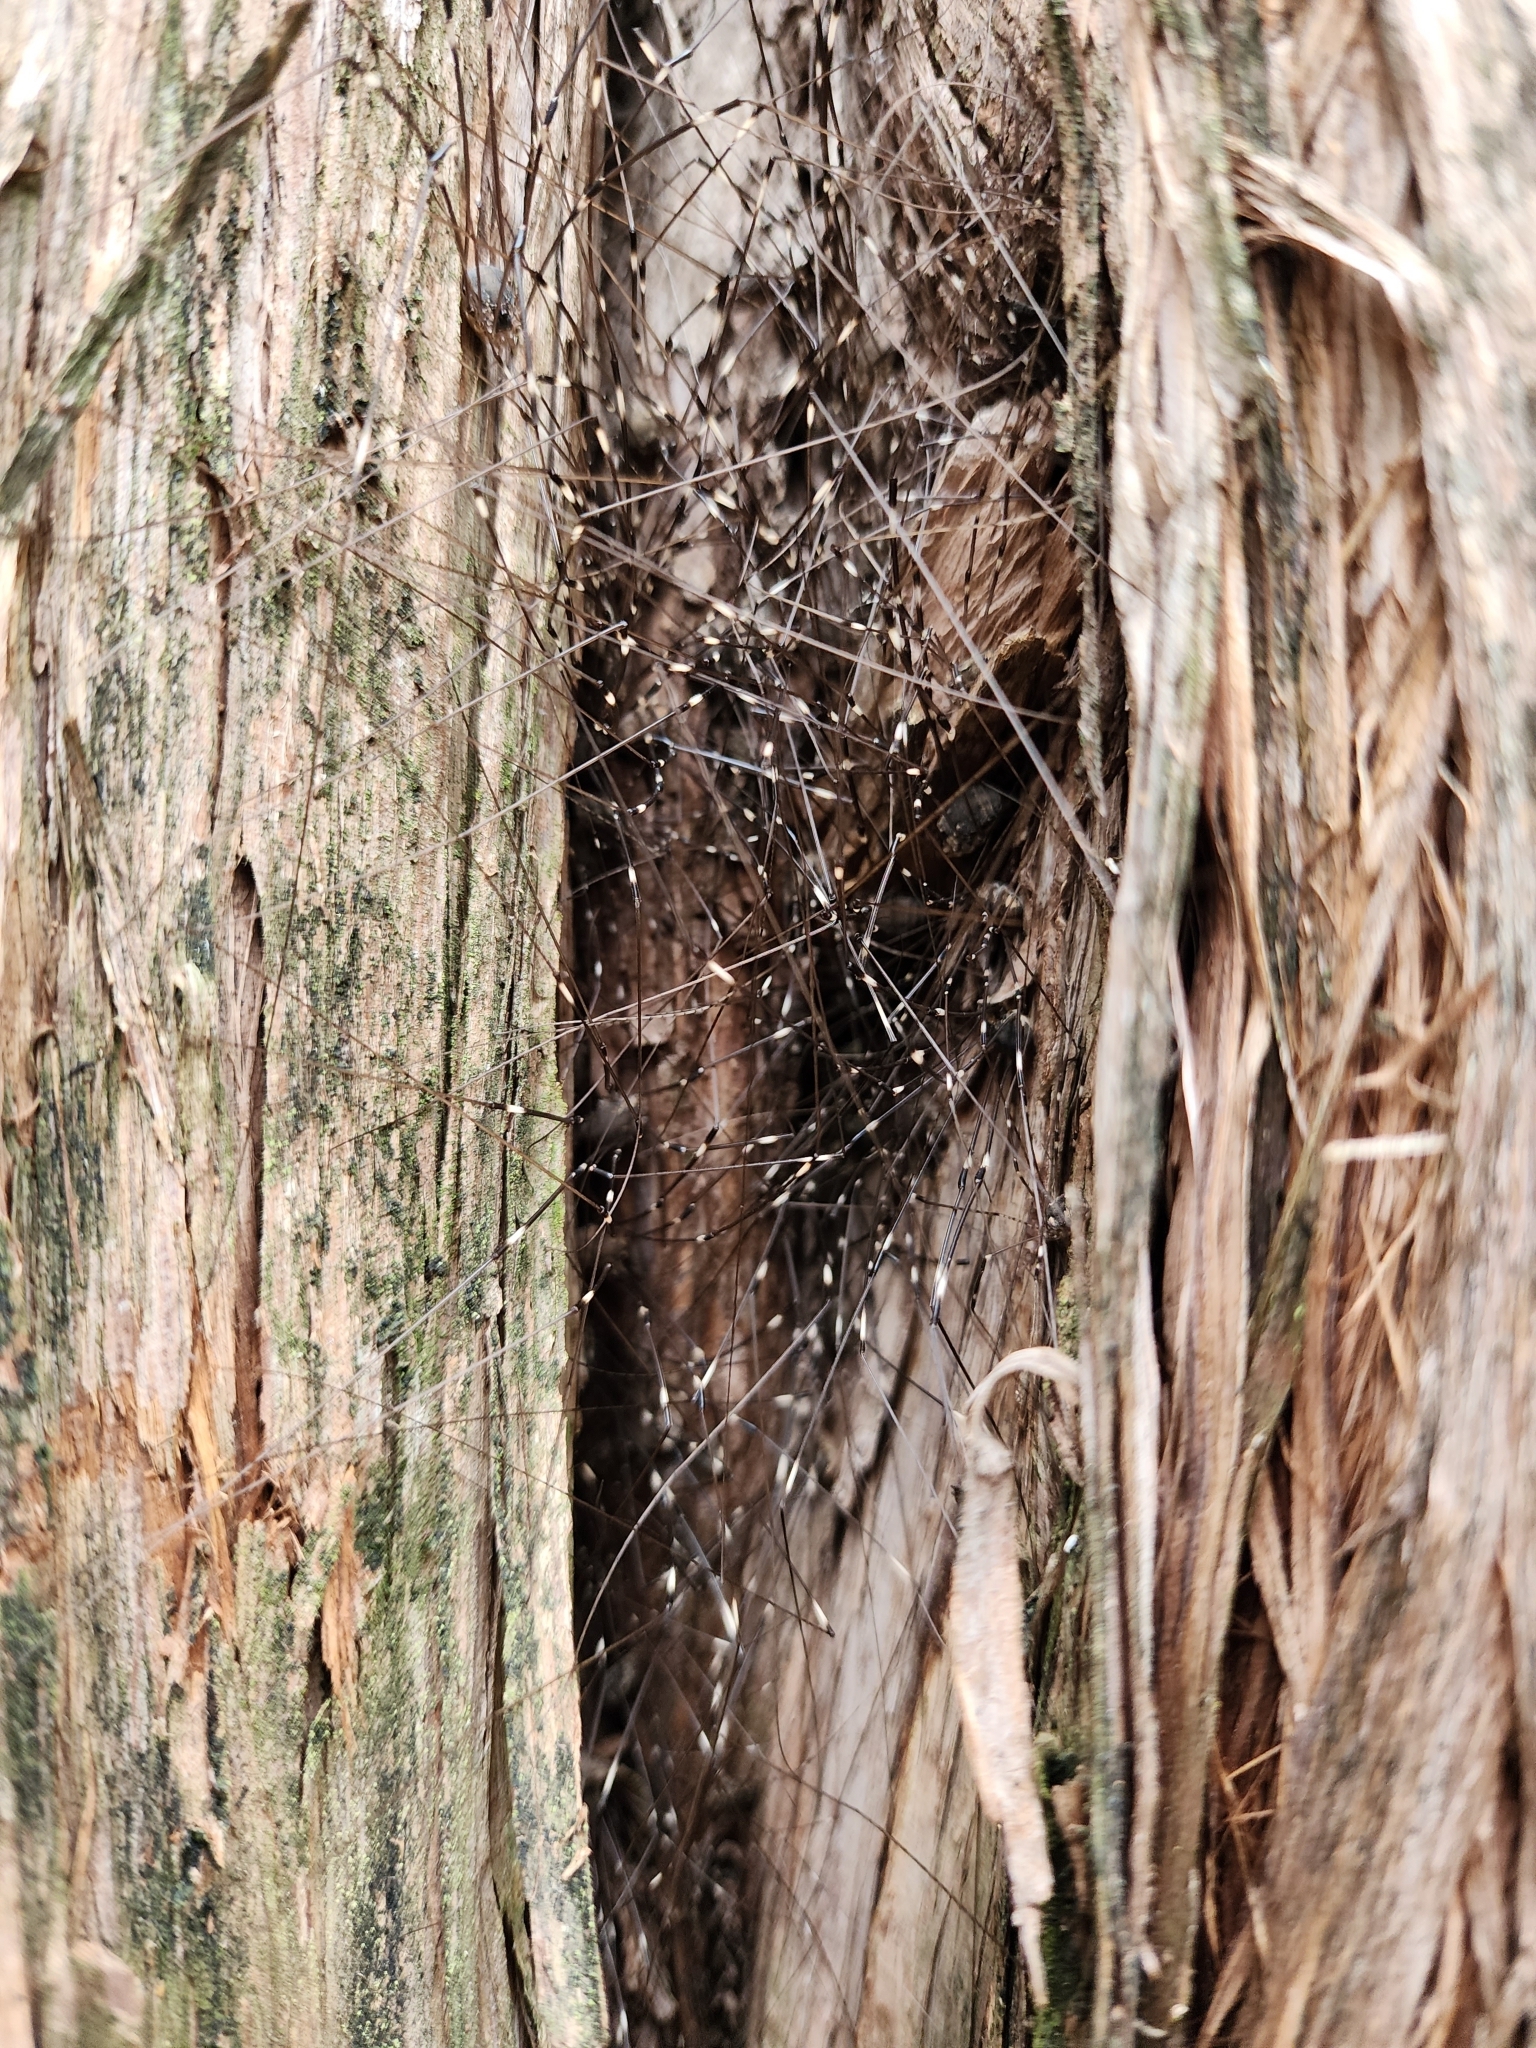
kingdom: Animalia
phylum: Arthropoda
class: Arachnida
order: Opiliones
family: Sclerosomatidae
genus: Leiobunum
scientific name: Leiobunum townsendi
